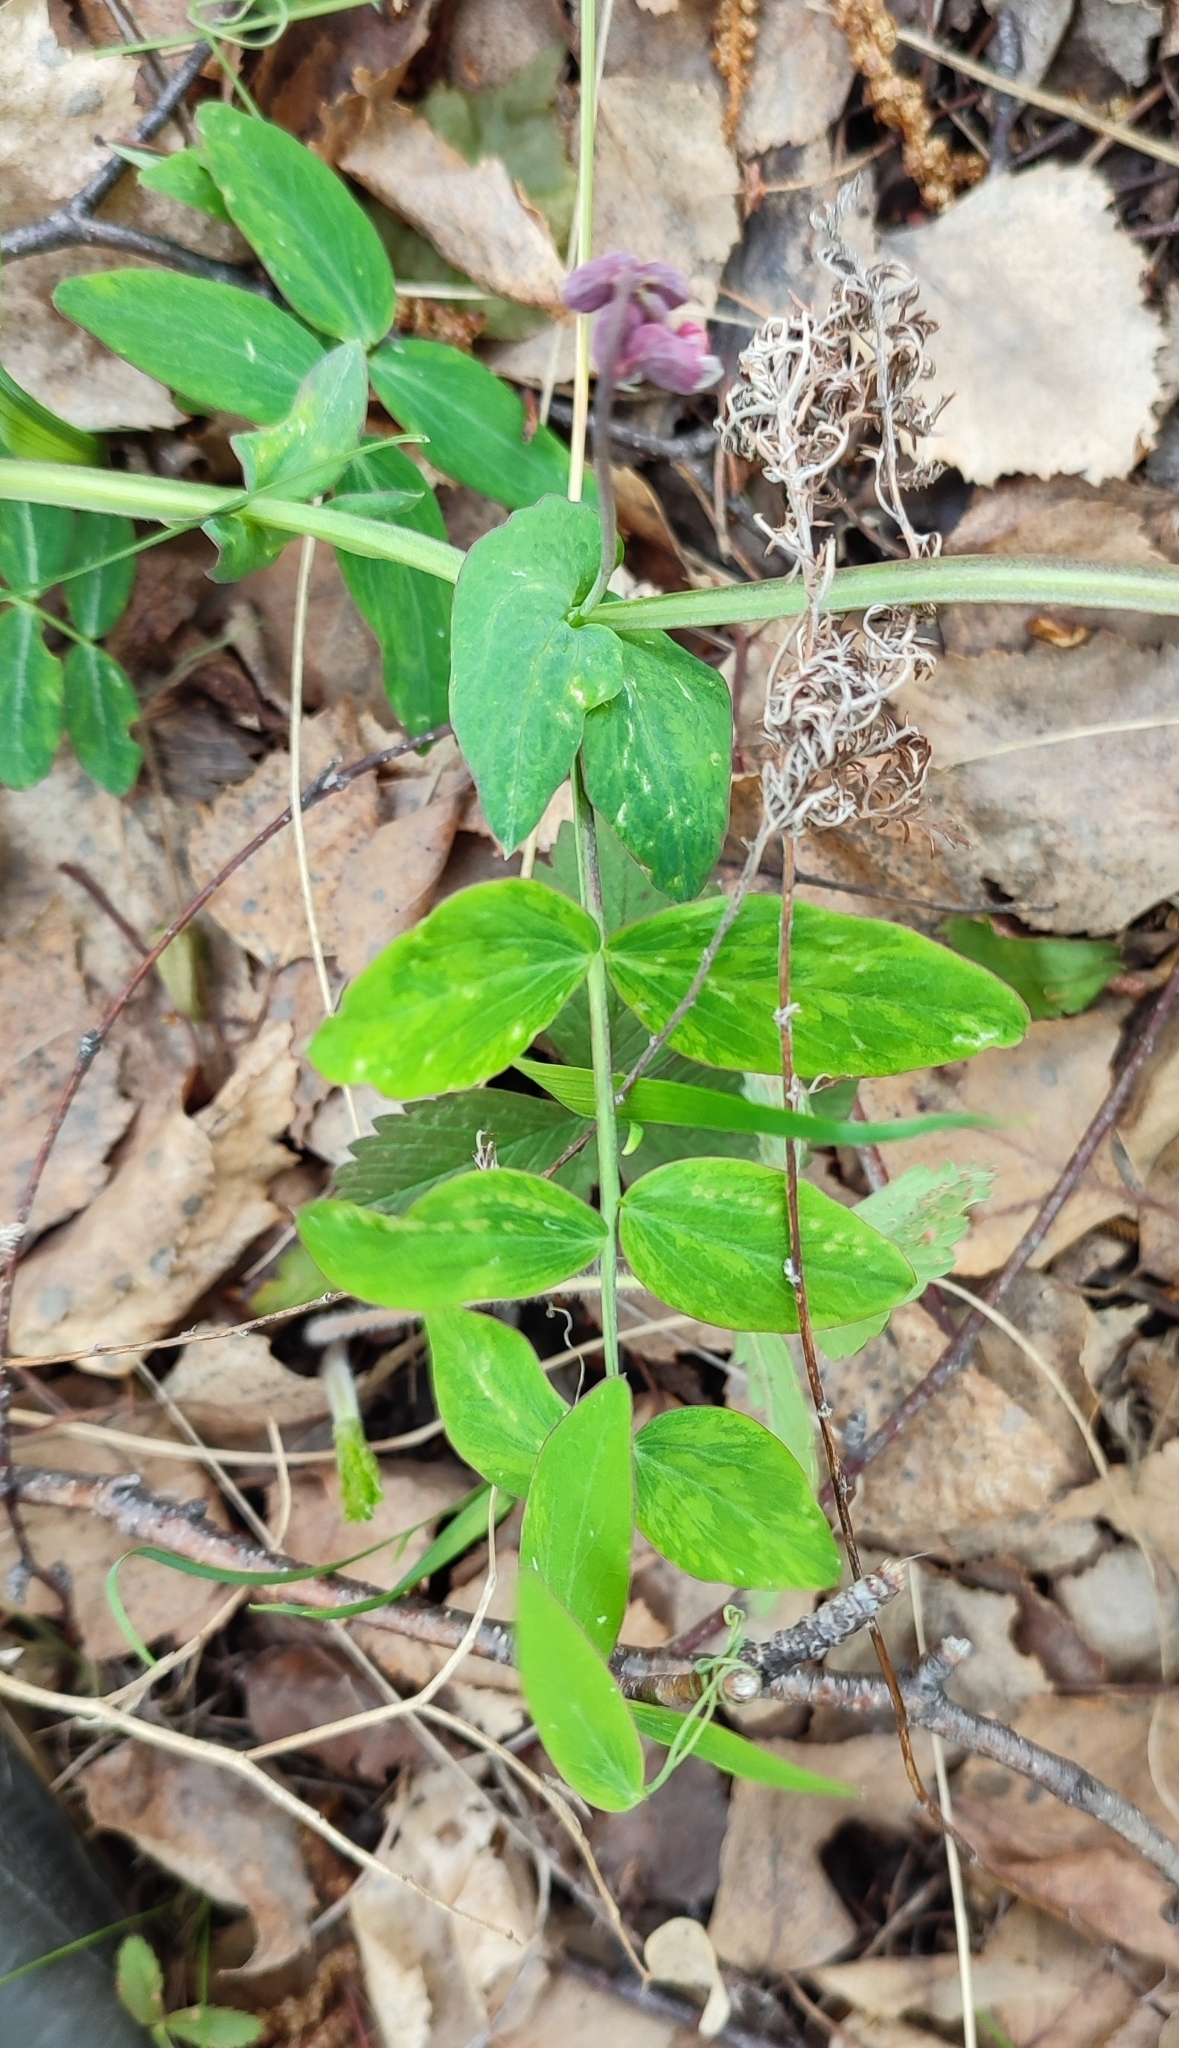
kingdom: Plantae
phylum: Tracheophyta
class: Magnoliopsida
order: Fabales
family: Fabaceae
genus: Lathyrus
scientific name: Lathyrus pisiformis
